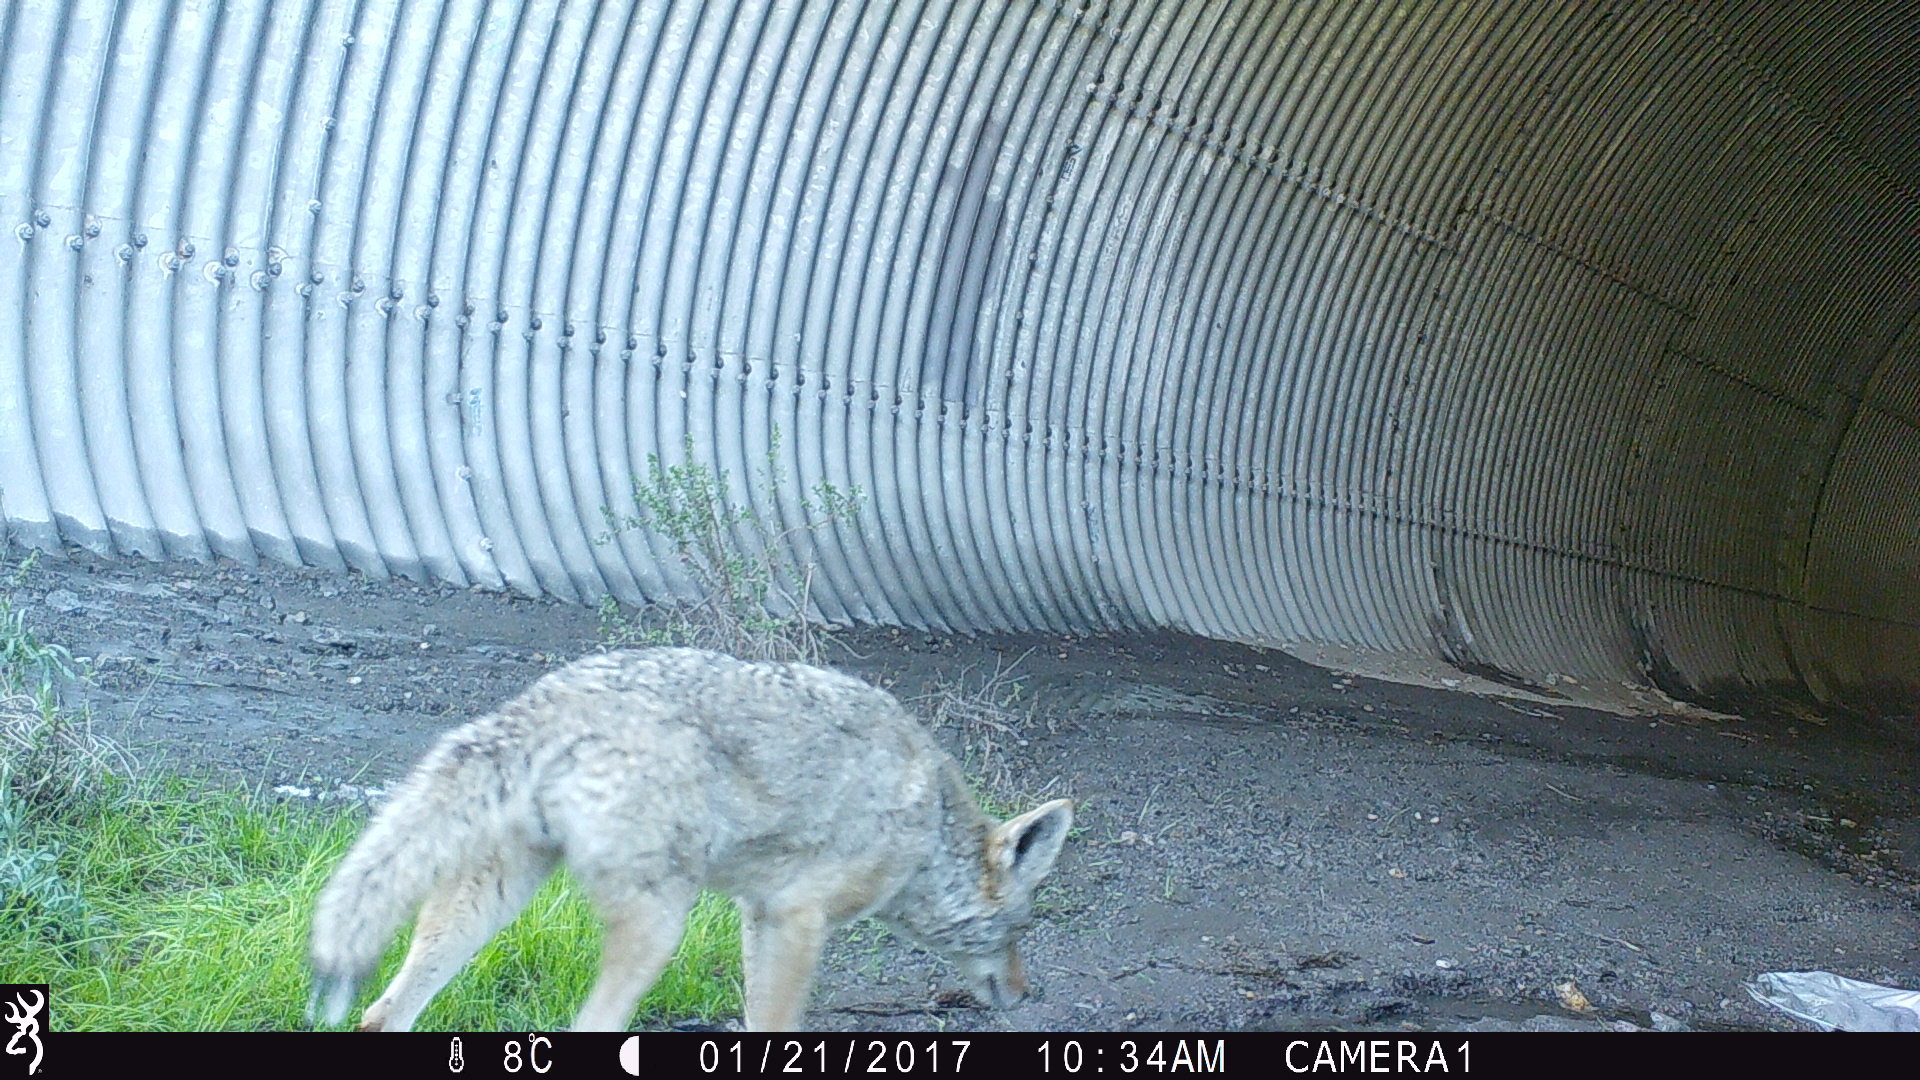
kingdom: Animalia
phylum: Chordata
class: Mammalia
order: Carnivora
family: Canidae
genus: Canis
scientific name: Canis latrans
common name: Coyote
